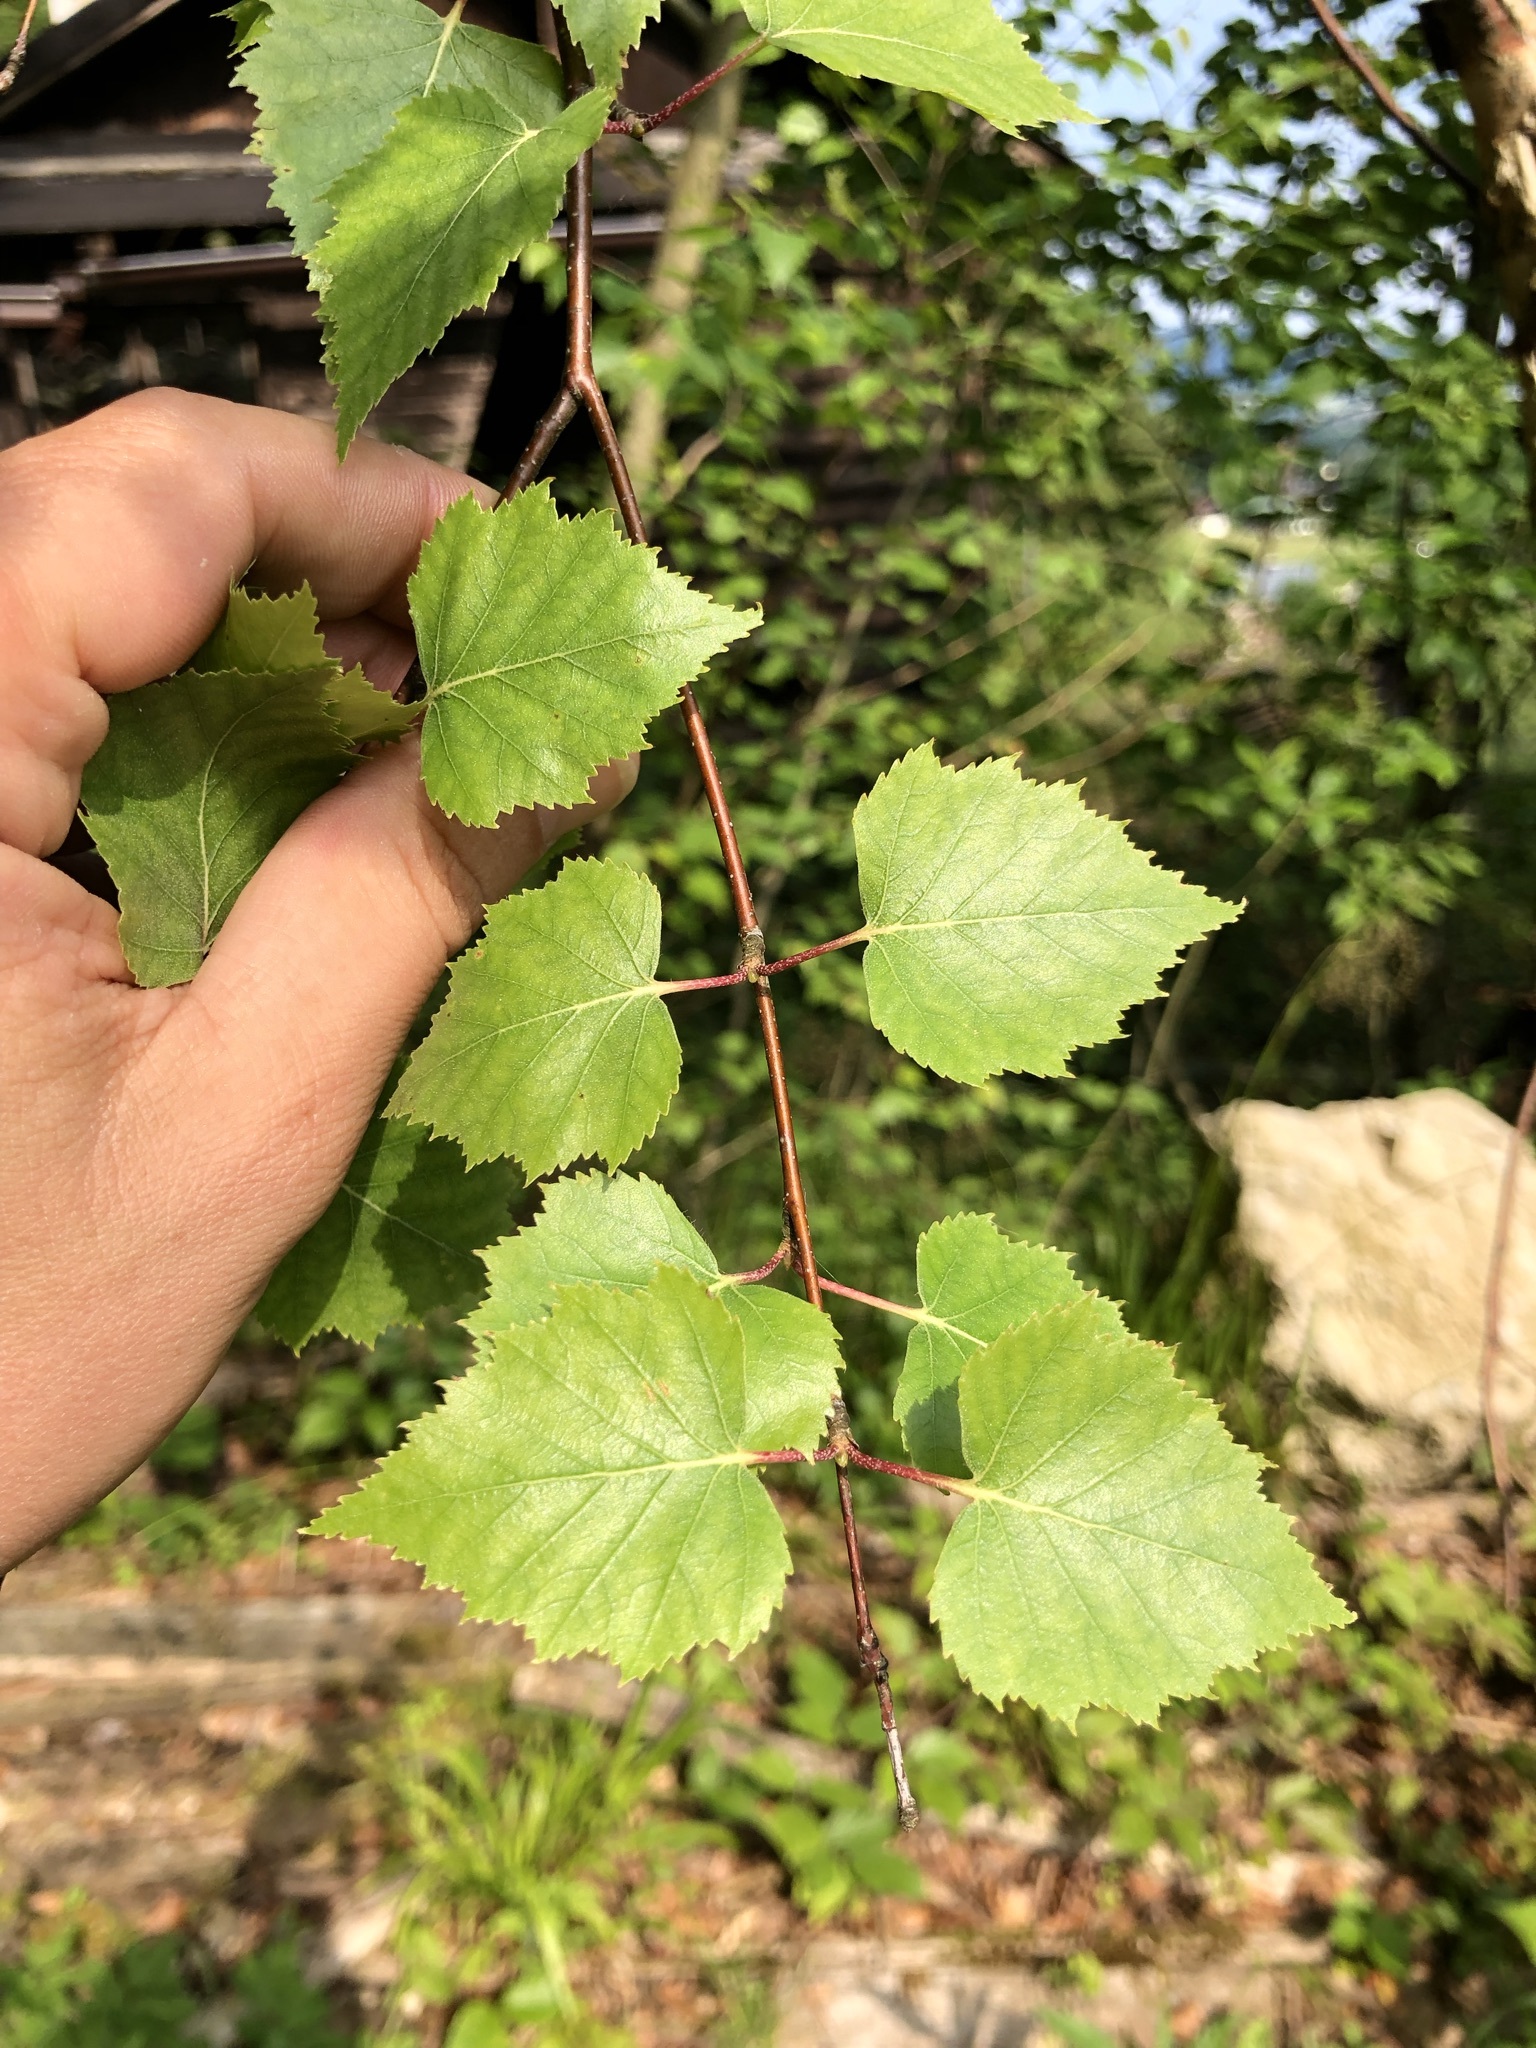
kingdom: Plantae
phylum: Tracheophyta
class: Magnoliopsida
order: Fagales
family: Betulaceae
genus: Betula
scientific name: Betula pendula
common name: Silver birch
